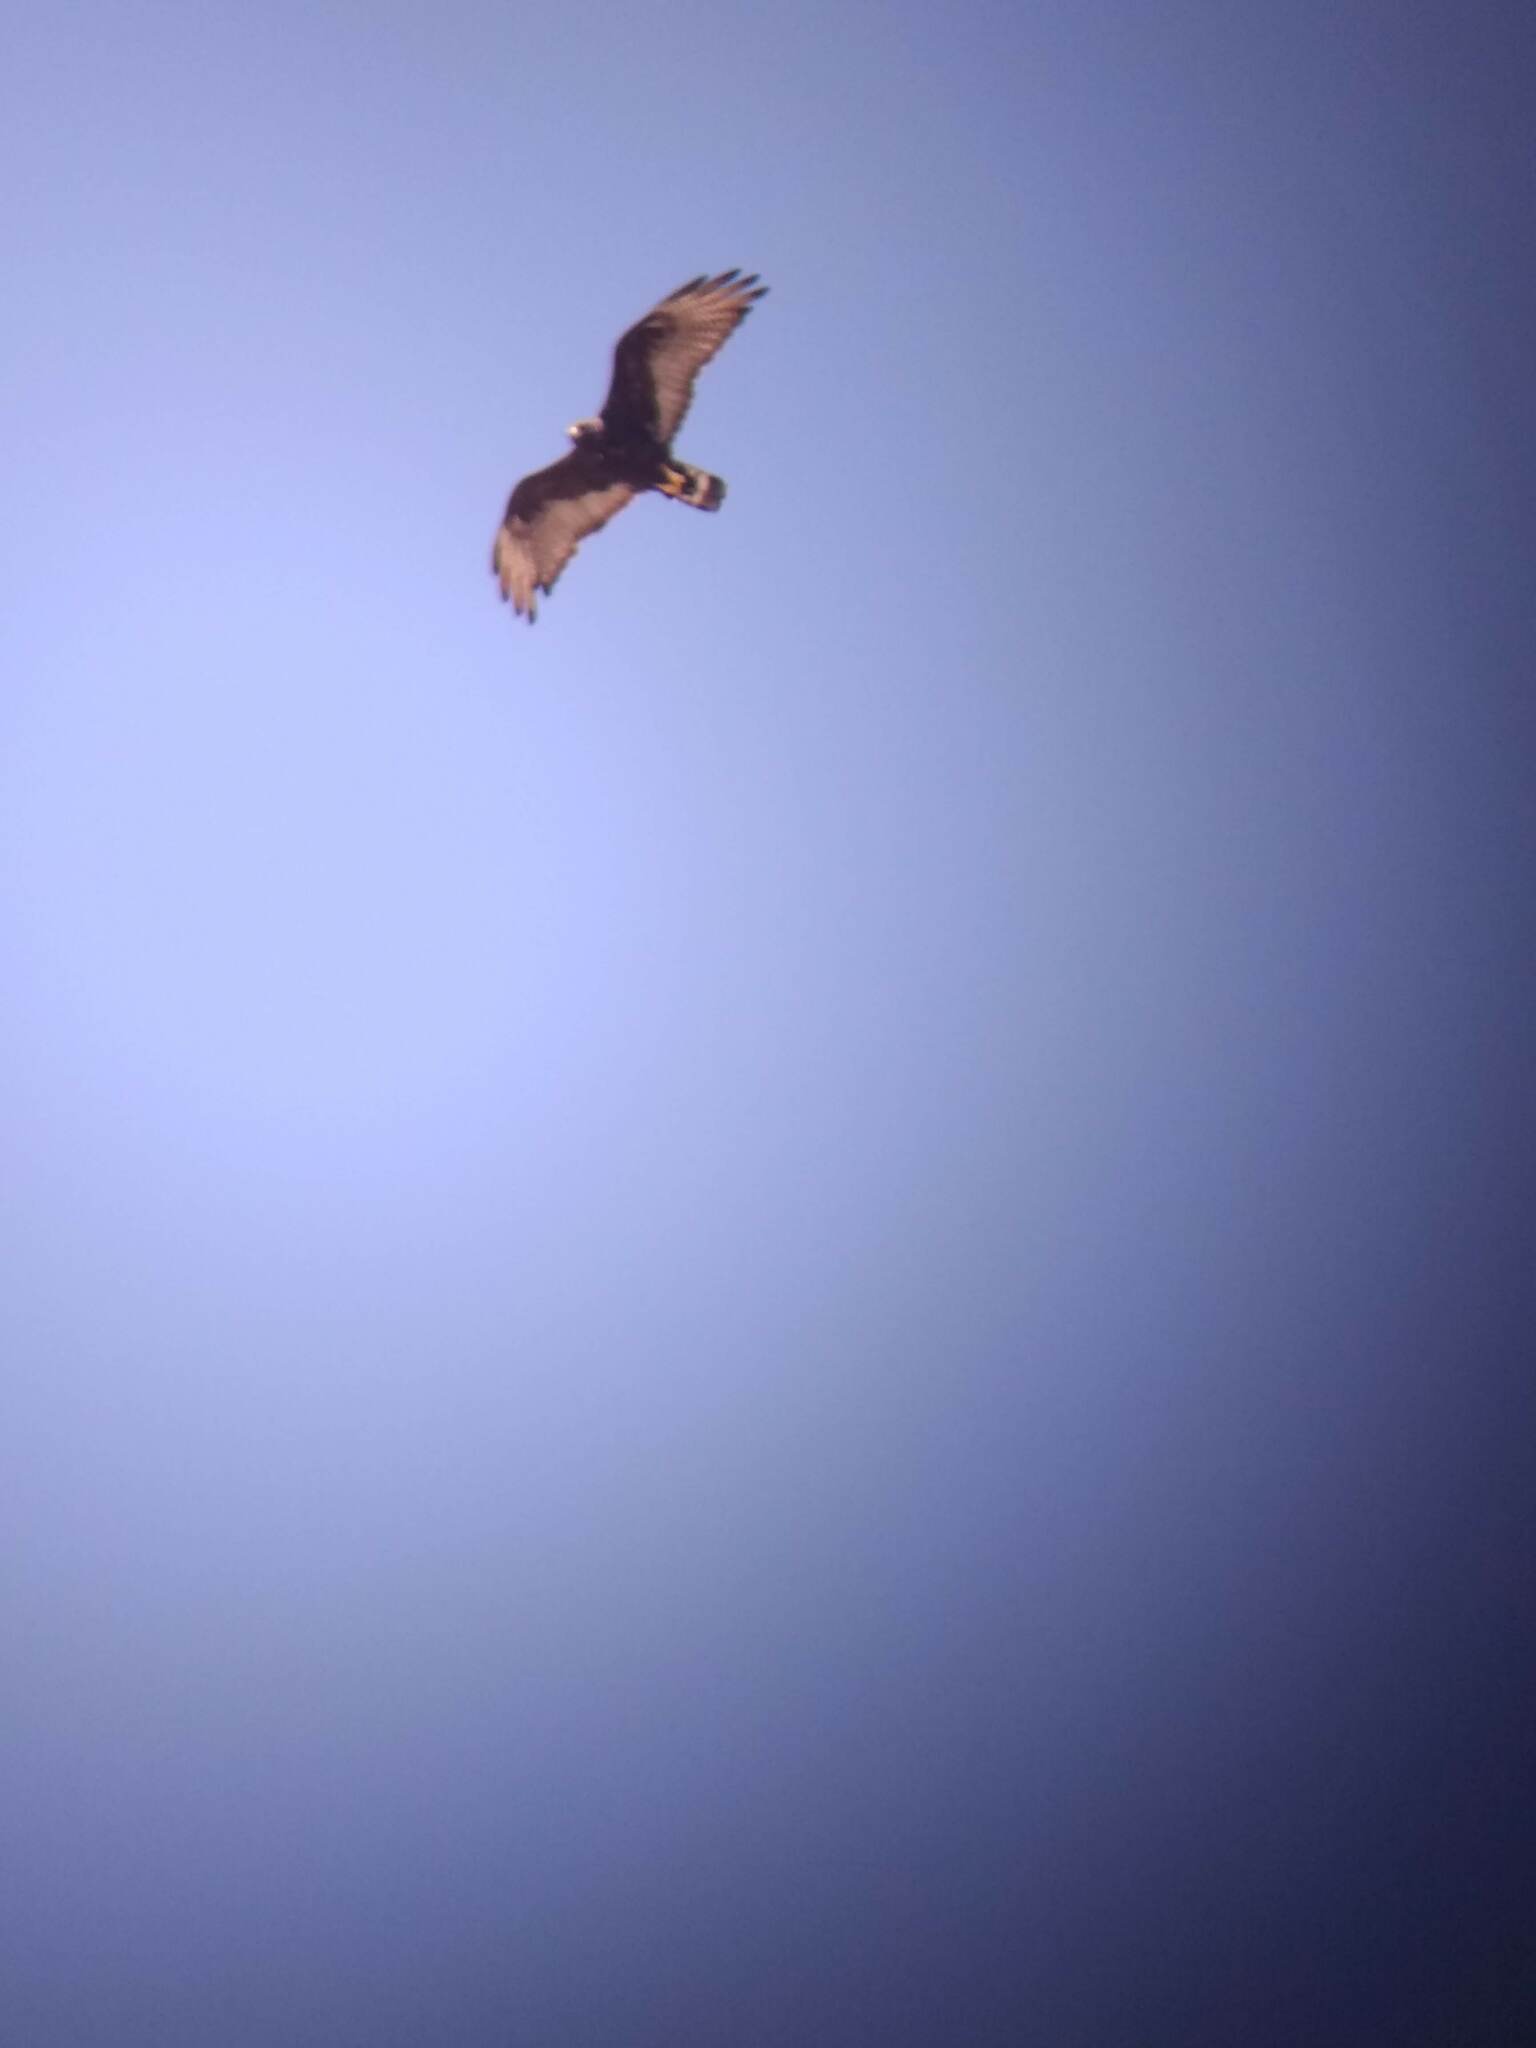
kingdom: Animalia
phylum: Chordata
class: Aves
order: Accipitriformes
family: Accipitridae
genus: Buteo
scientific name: Buteo albonotatus
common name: Zone-tailed hawk
